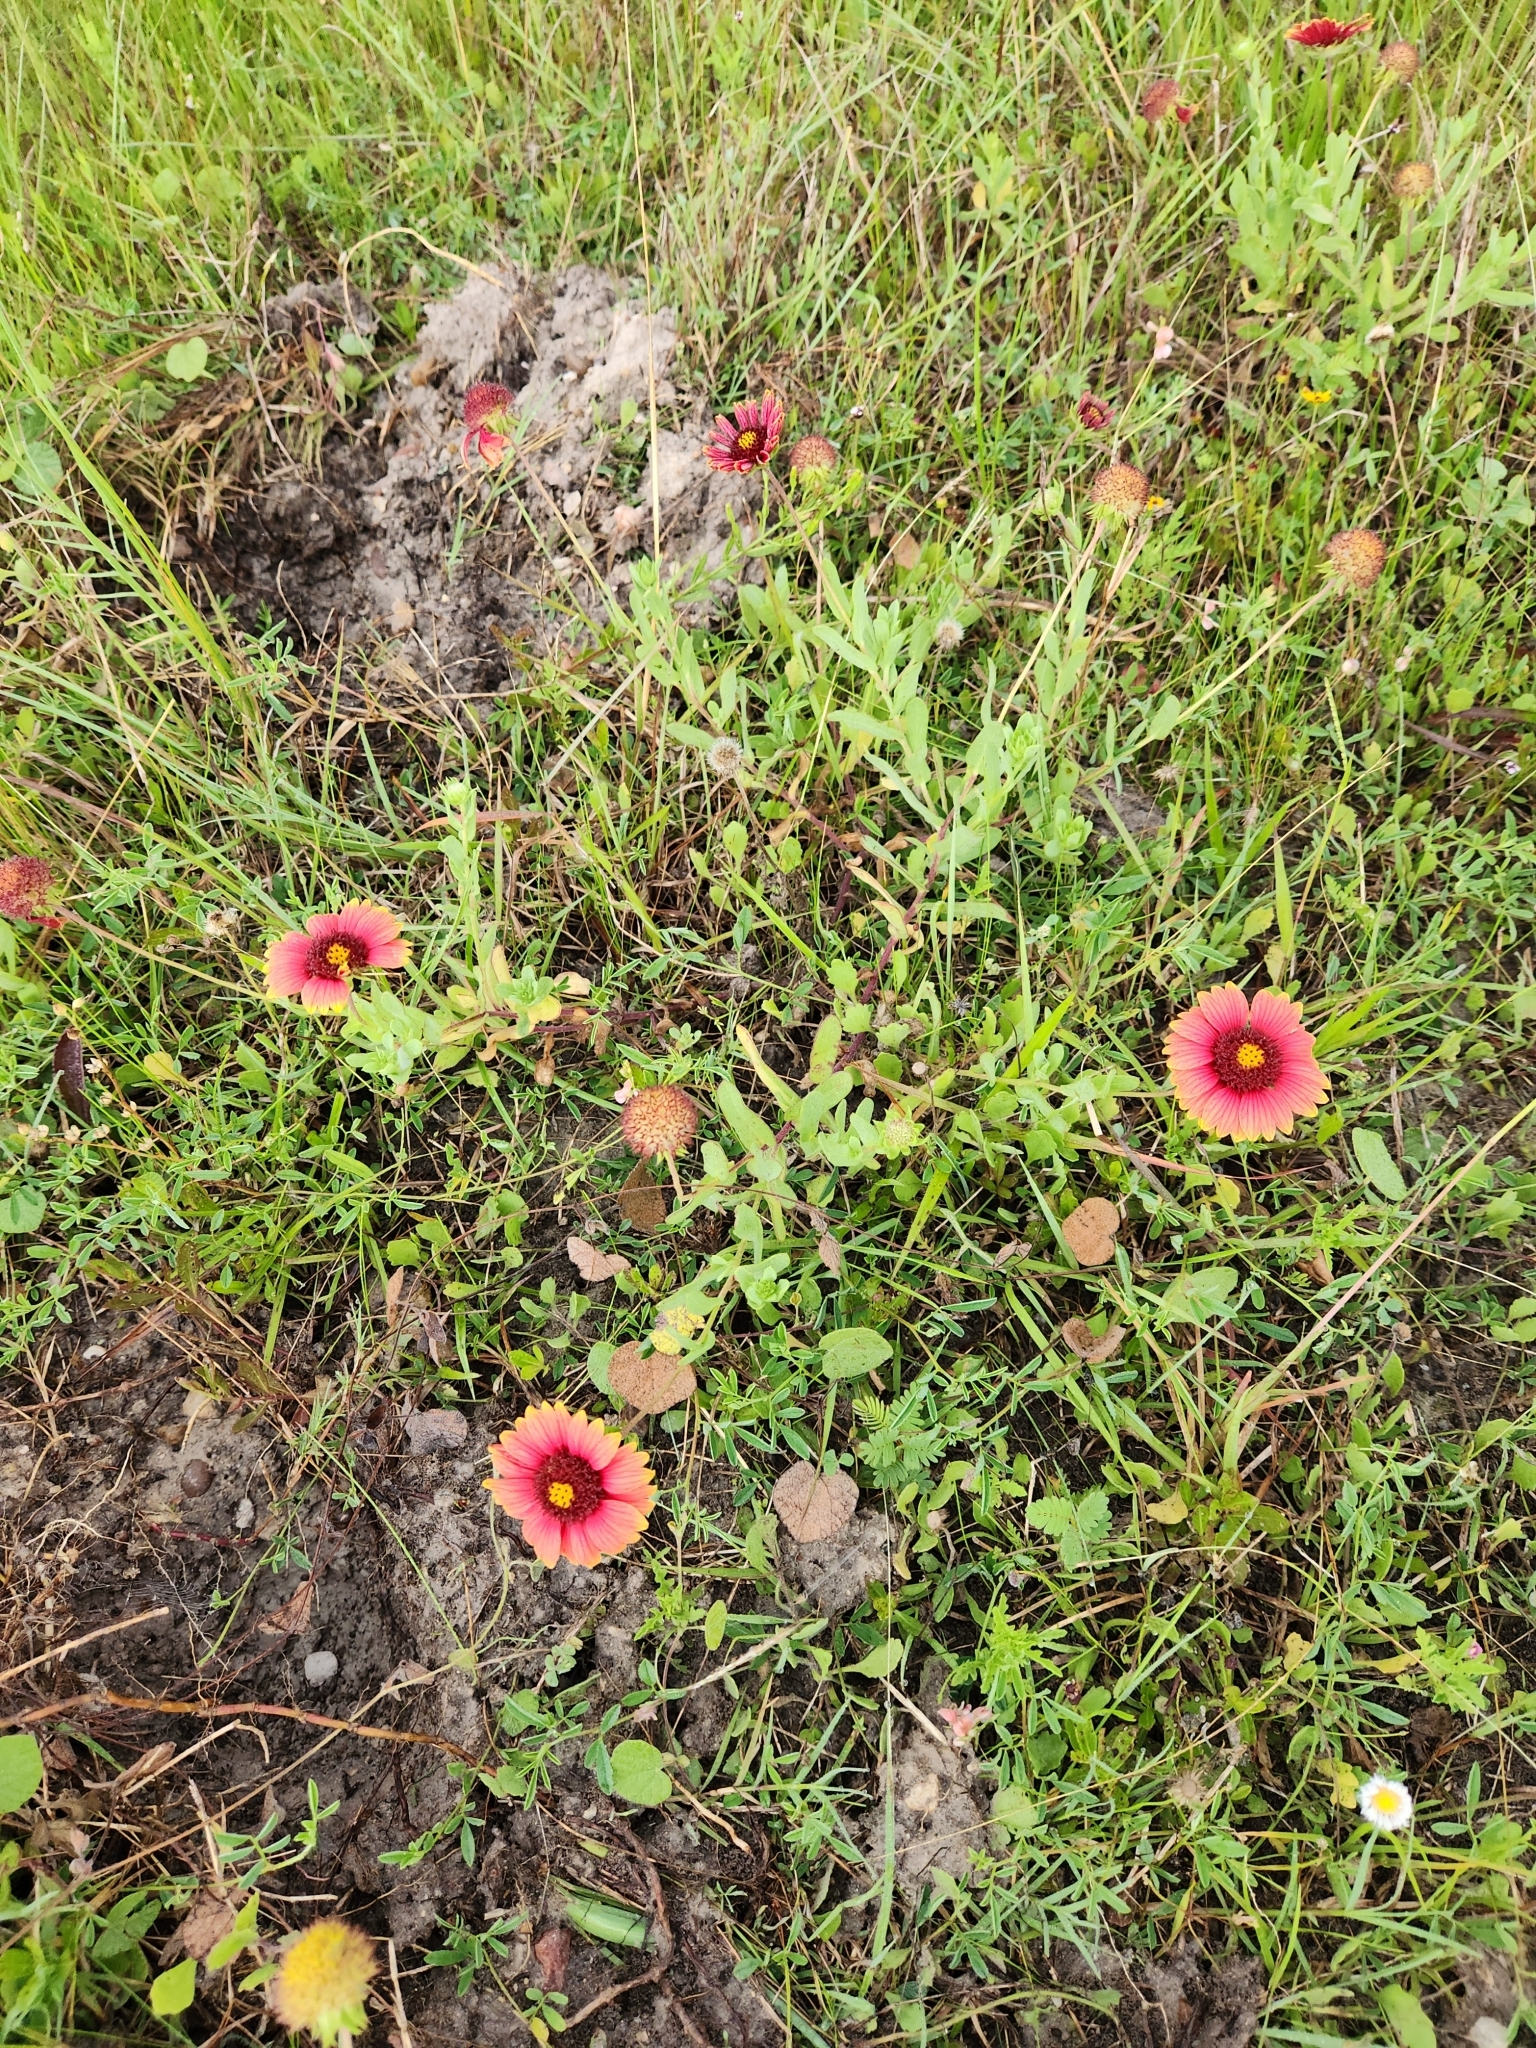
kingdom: Plantae
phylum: Tracheophyta
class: Magnoliopsida
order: Asterales
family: Asteraceae
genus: Gaillardia
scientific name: Gaillardia pulchella
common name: Firewheel
